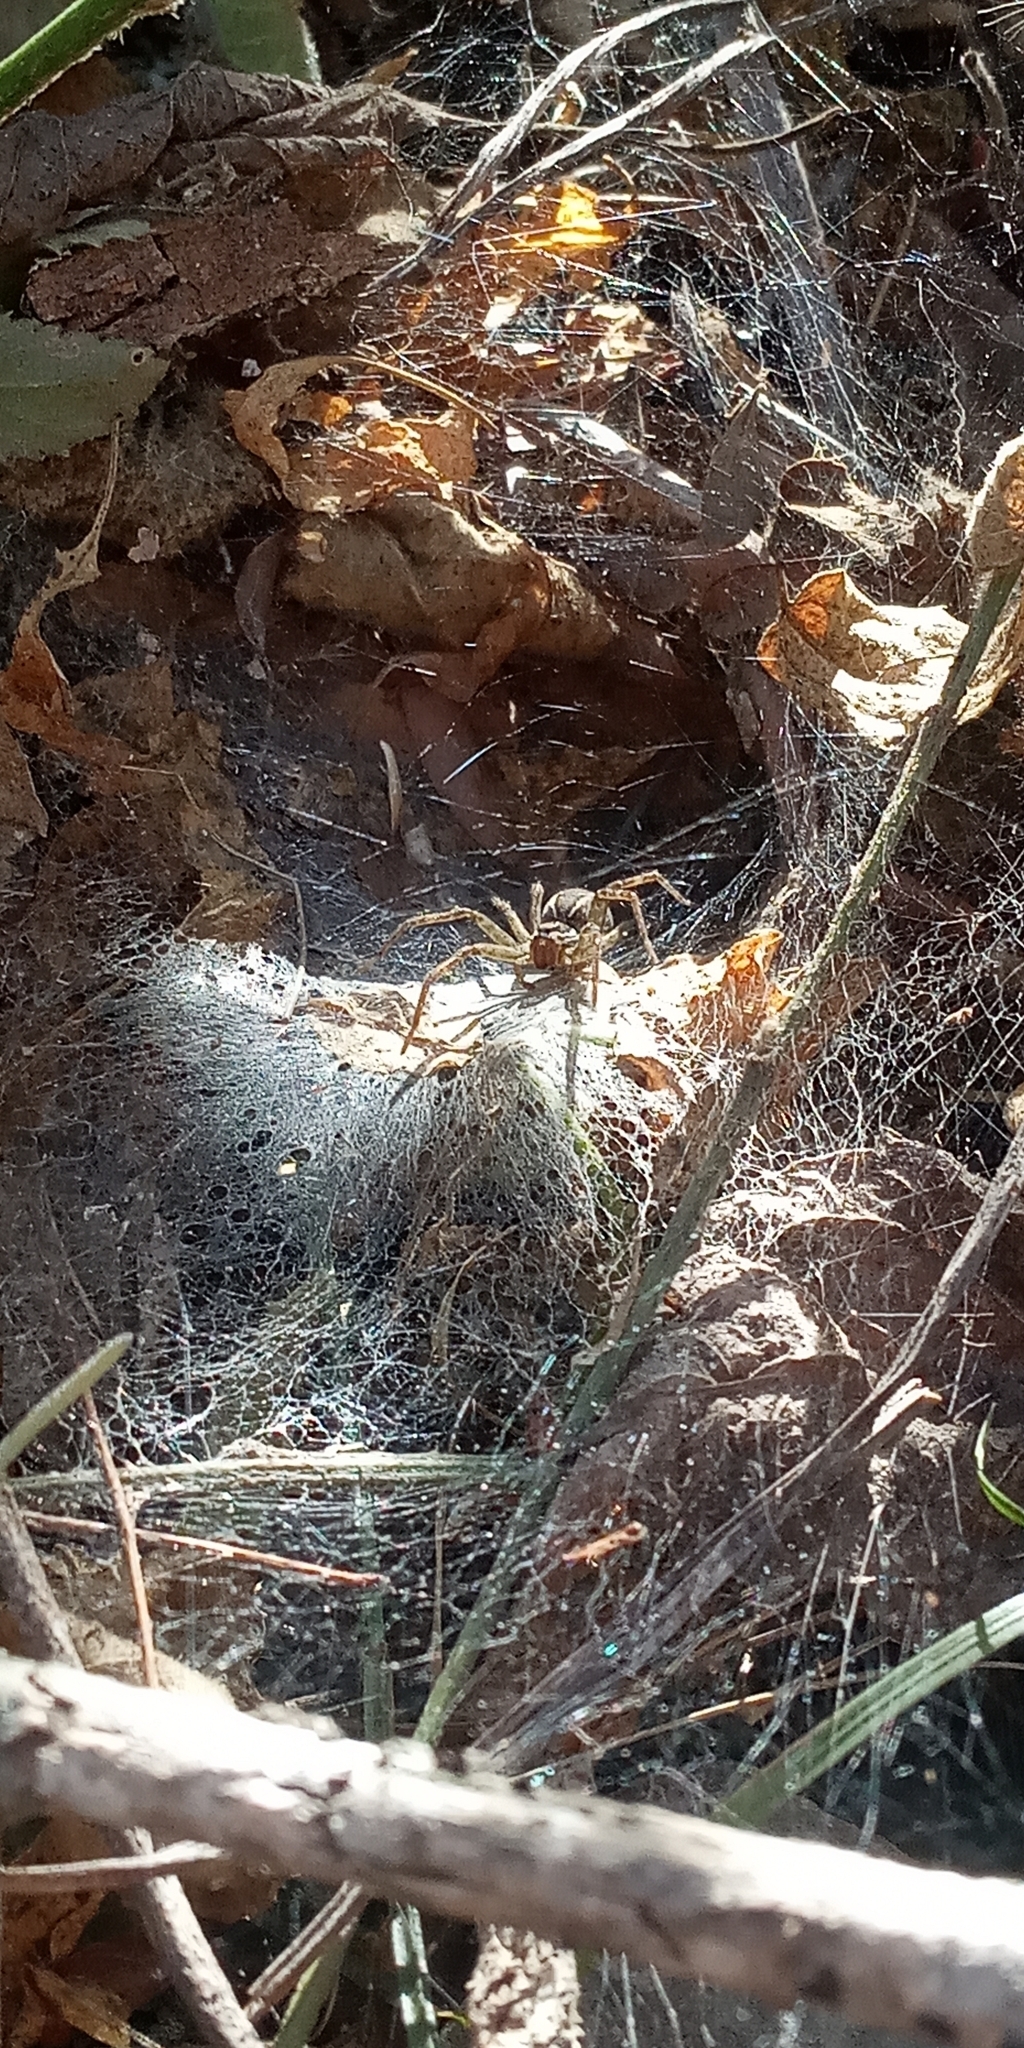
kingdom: Animalia
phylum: Arthropoda
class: Arachnida
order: Araneae
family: Lycosidae
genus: Aglaoctenus
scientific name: Aglaoctenus lagotis
